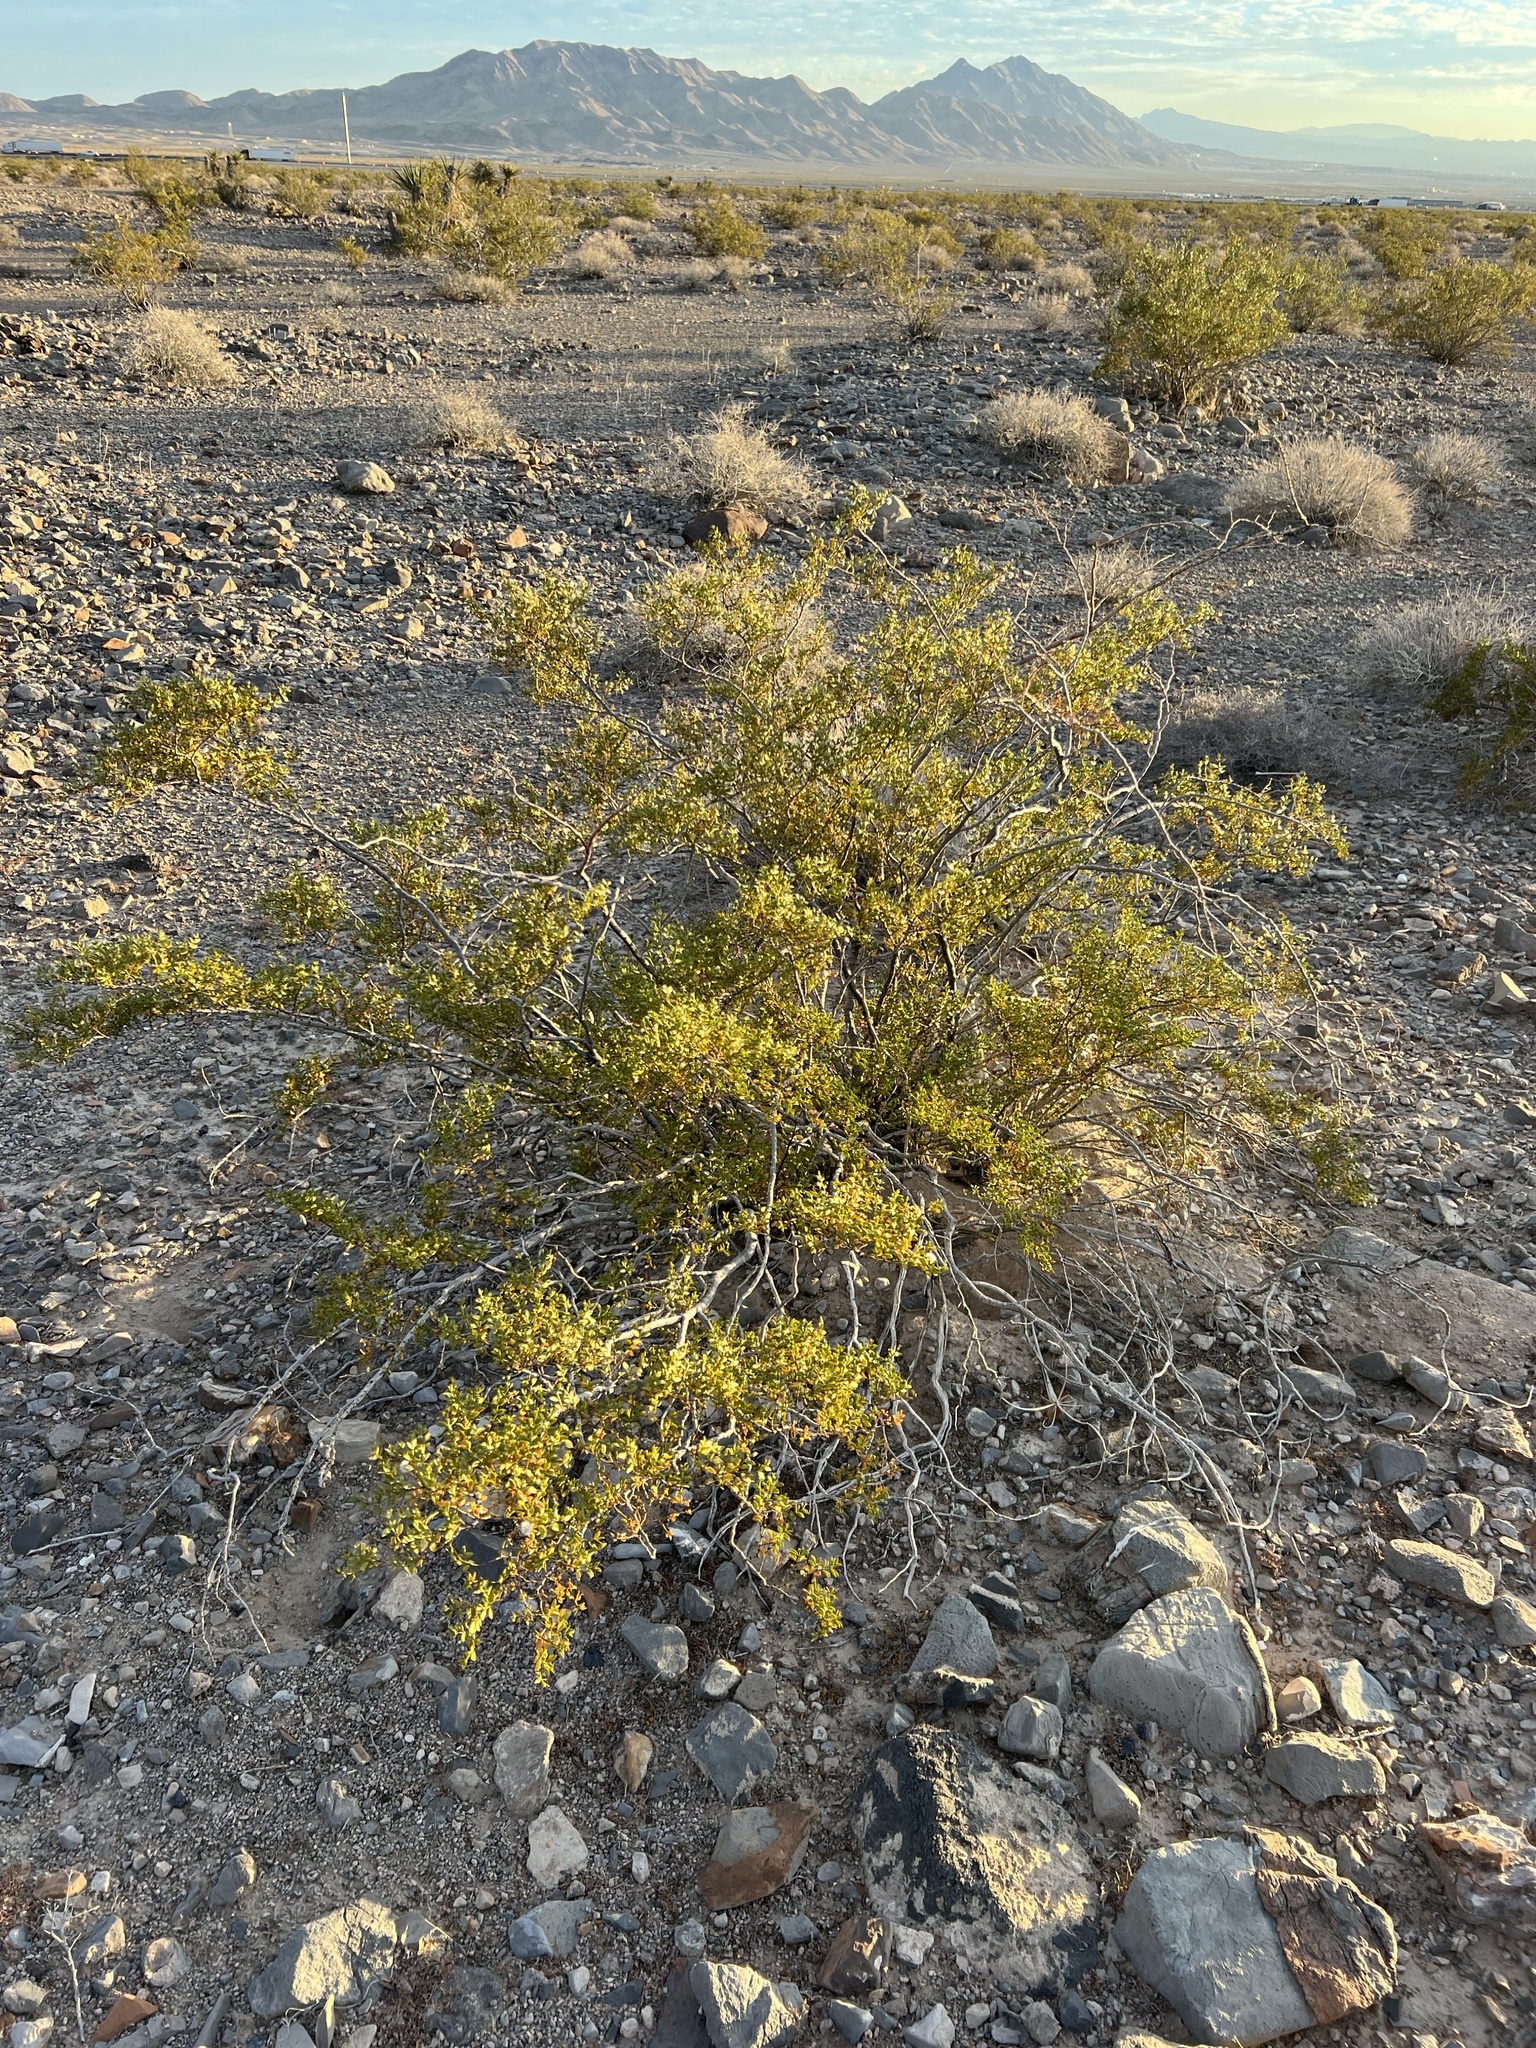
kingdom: Plantae
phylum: Tracheophyta
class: Magnoliopsida
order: Zygophyllales
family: Zygophyllaceae
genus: Larrea
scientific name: Larrea tridentata
